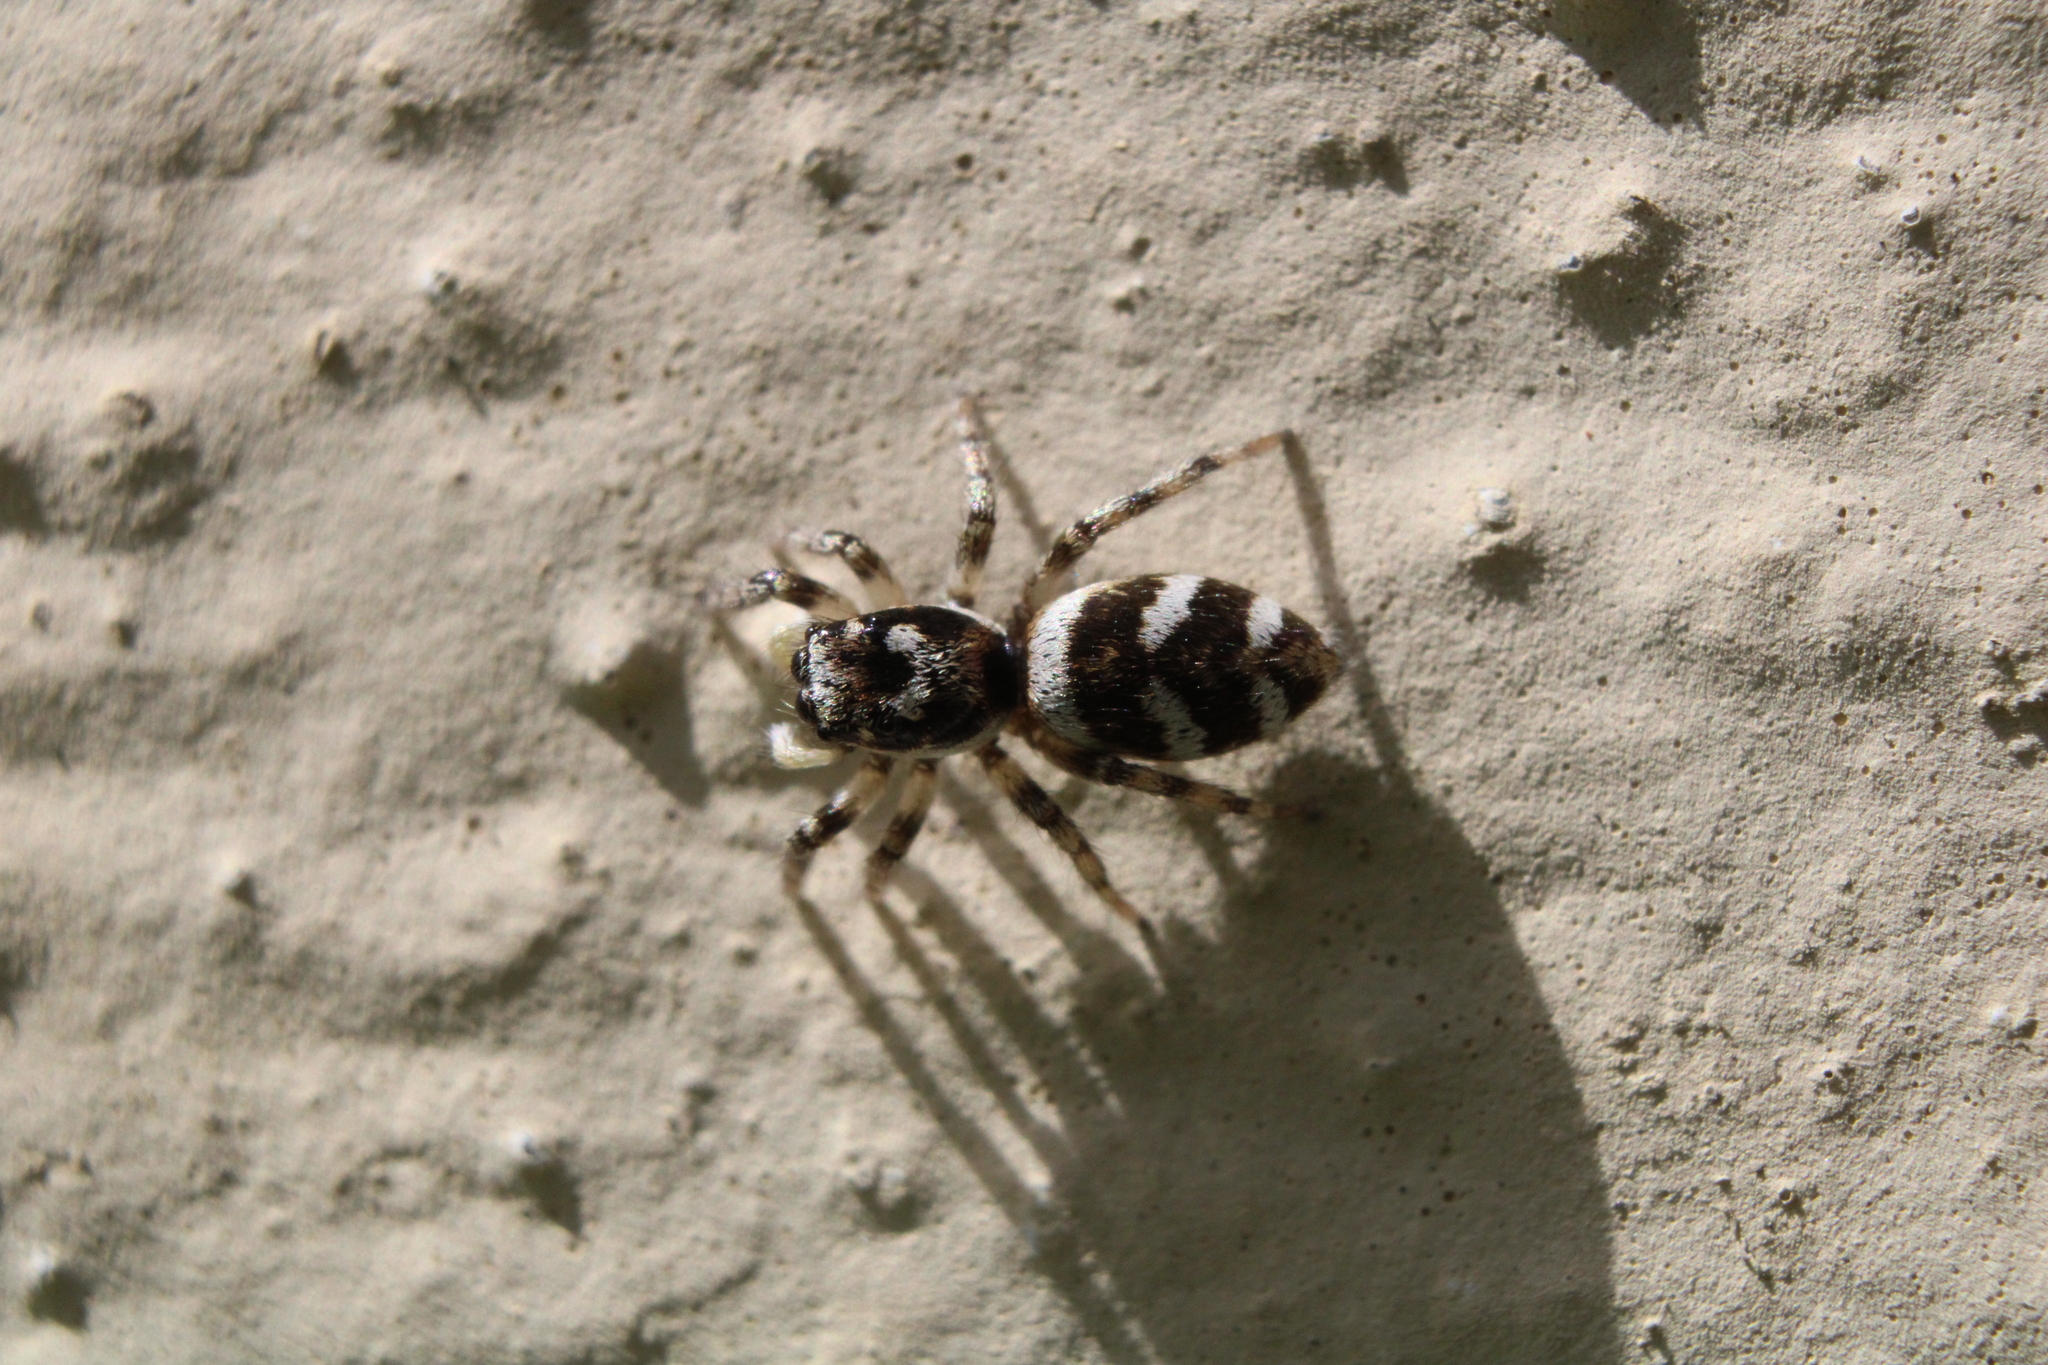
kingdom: Animalia
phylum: Arthropoda
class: Arachnida
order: Araneae
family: Salticidae
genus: Salticus
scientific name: Salticus scenicus
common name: Zebra jumper
